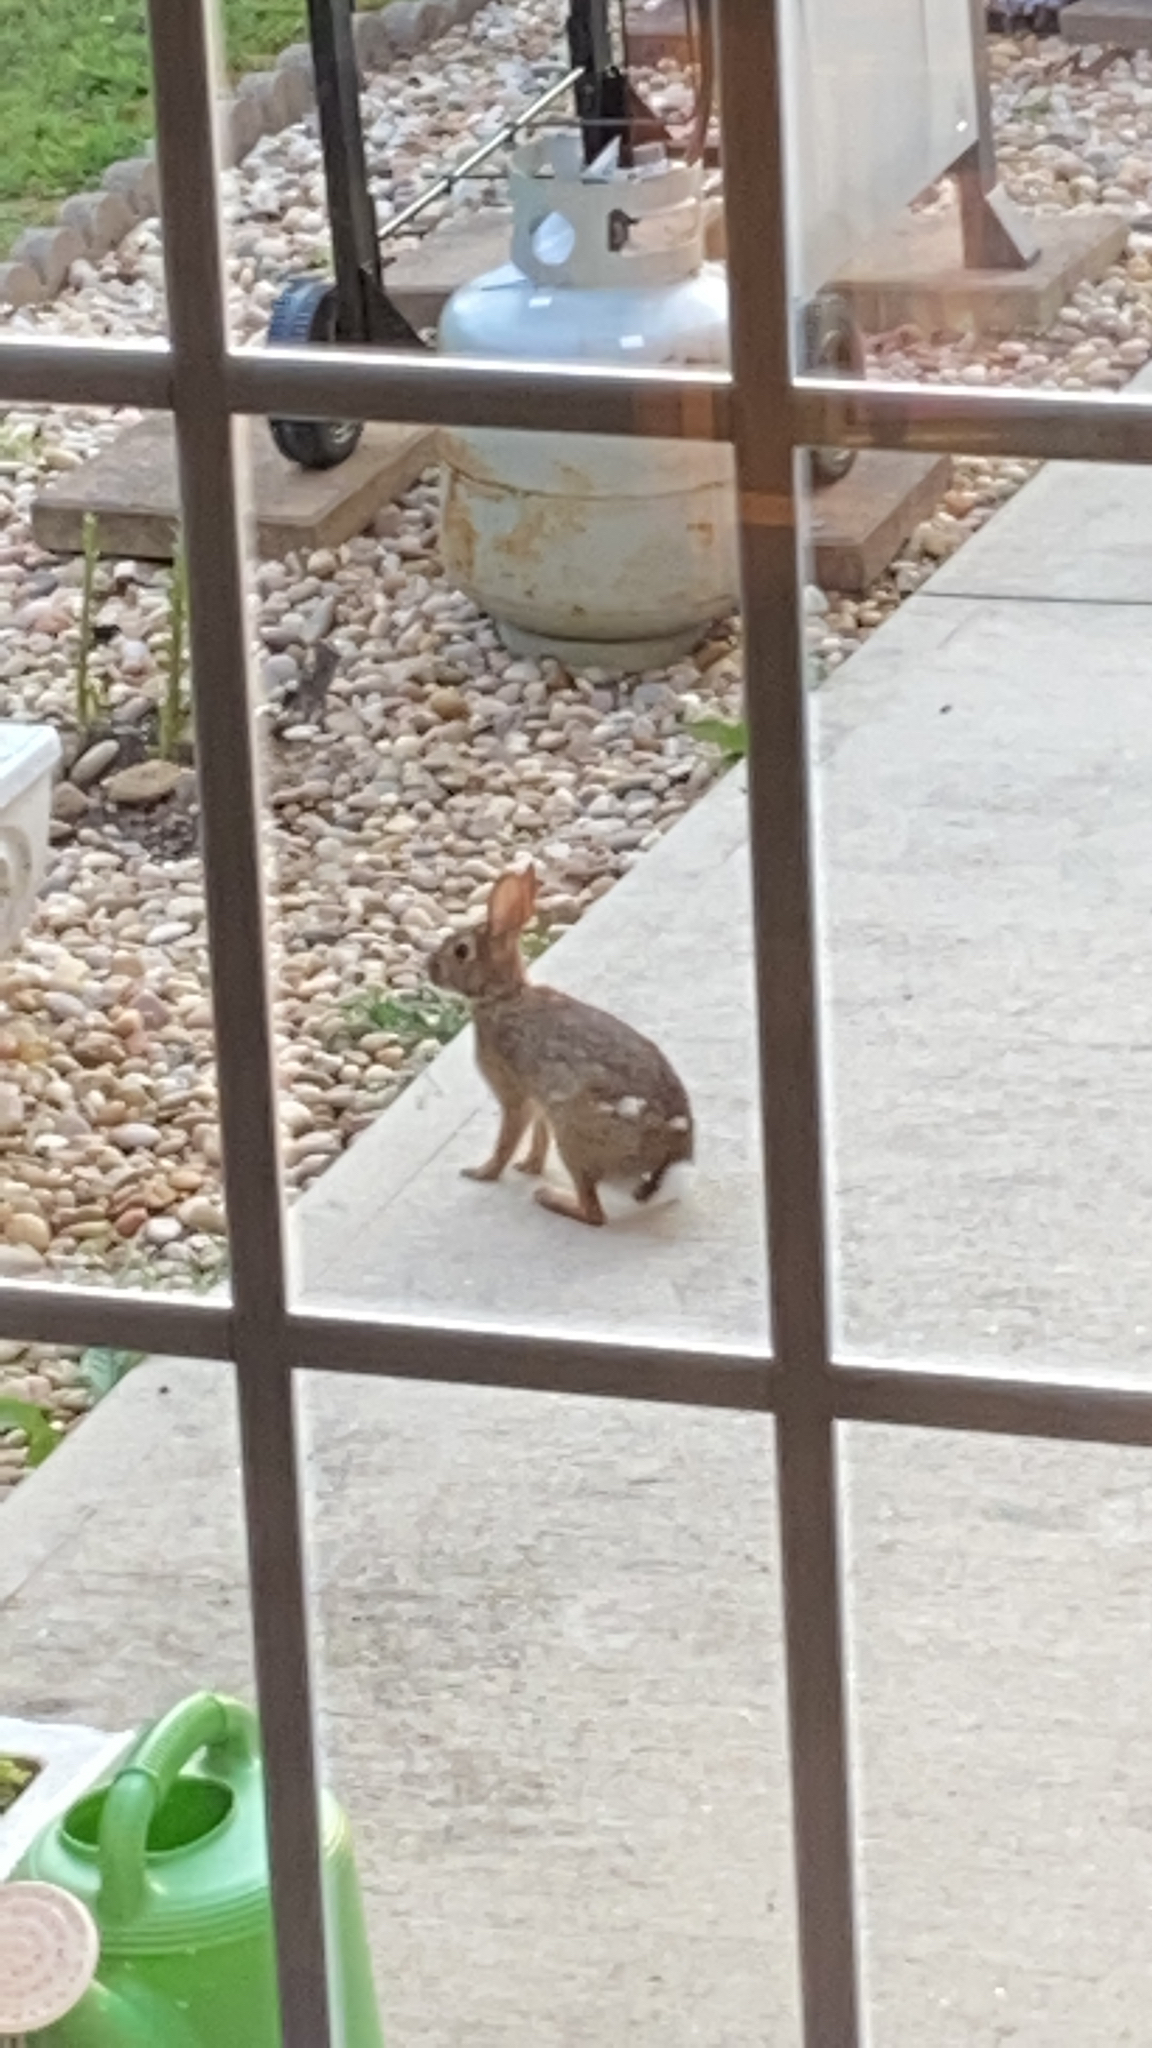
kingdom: Animalia
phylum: Chordata
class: Mammalia
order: Lagomorpha
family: Leporidae
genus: Sylvilagus
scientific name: Sylvilagus floridanus
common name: Eastern cottontail
